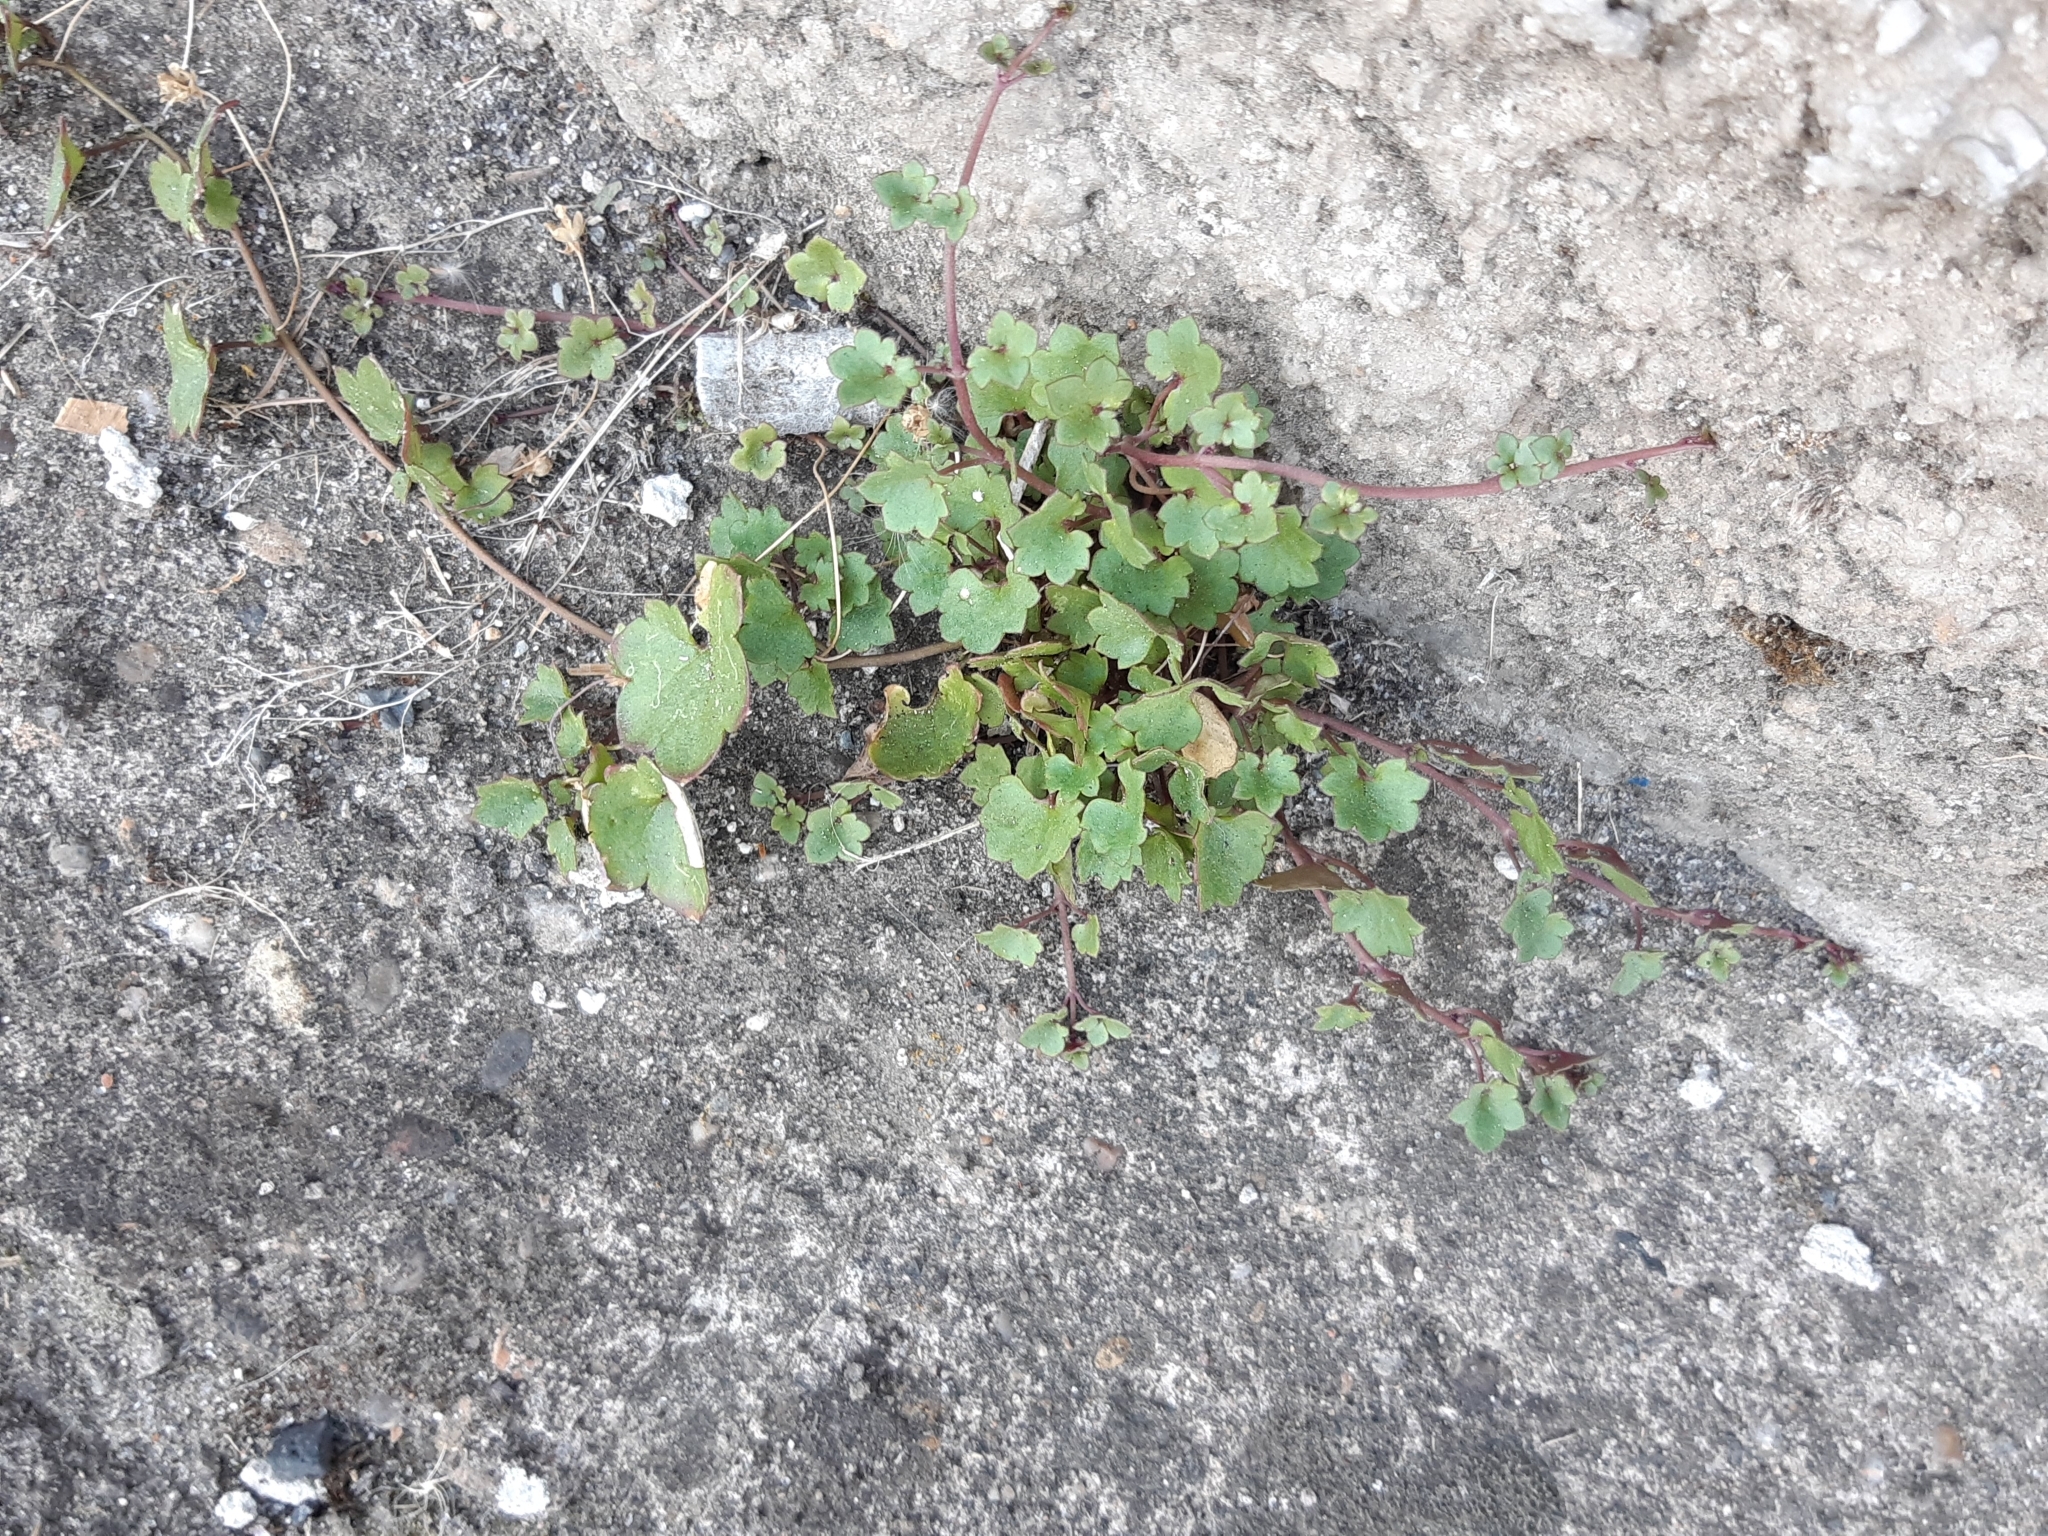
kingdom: Plantae
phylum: Tracheophyta
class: Magnoliopsida
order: Lamiales
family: Plantaginaceae
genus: Cymbalaria
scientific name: Cymbalaria muralis
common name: Ivy-leaved toadflax
